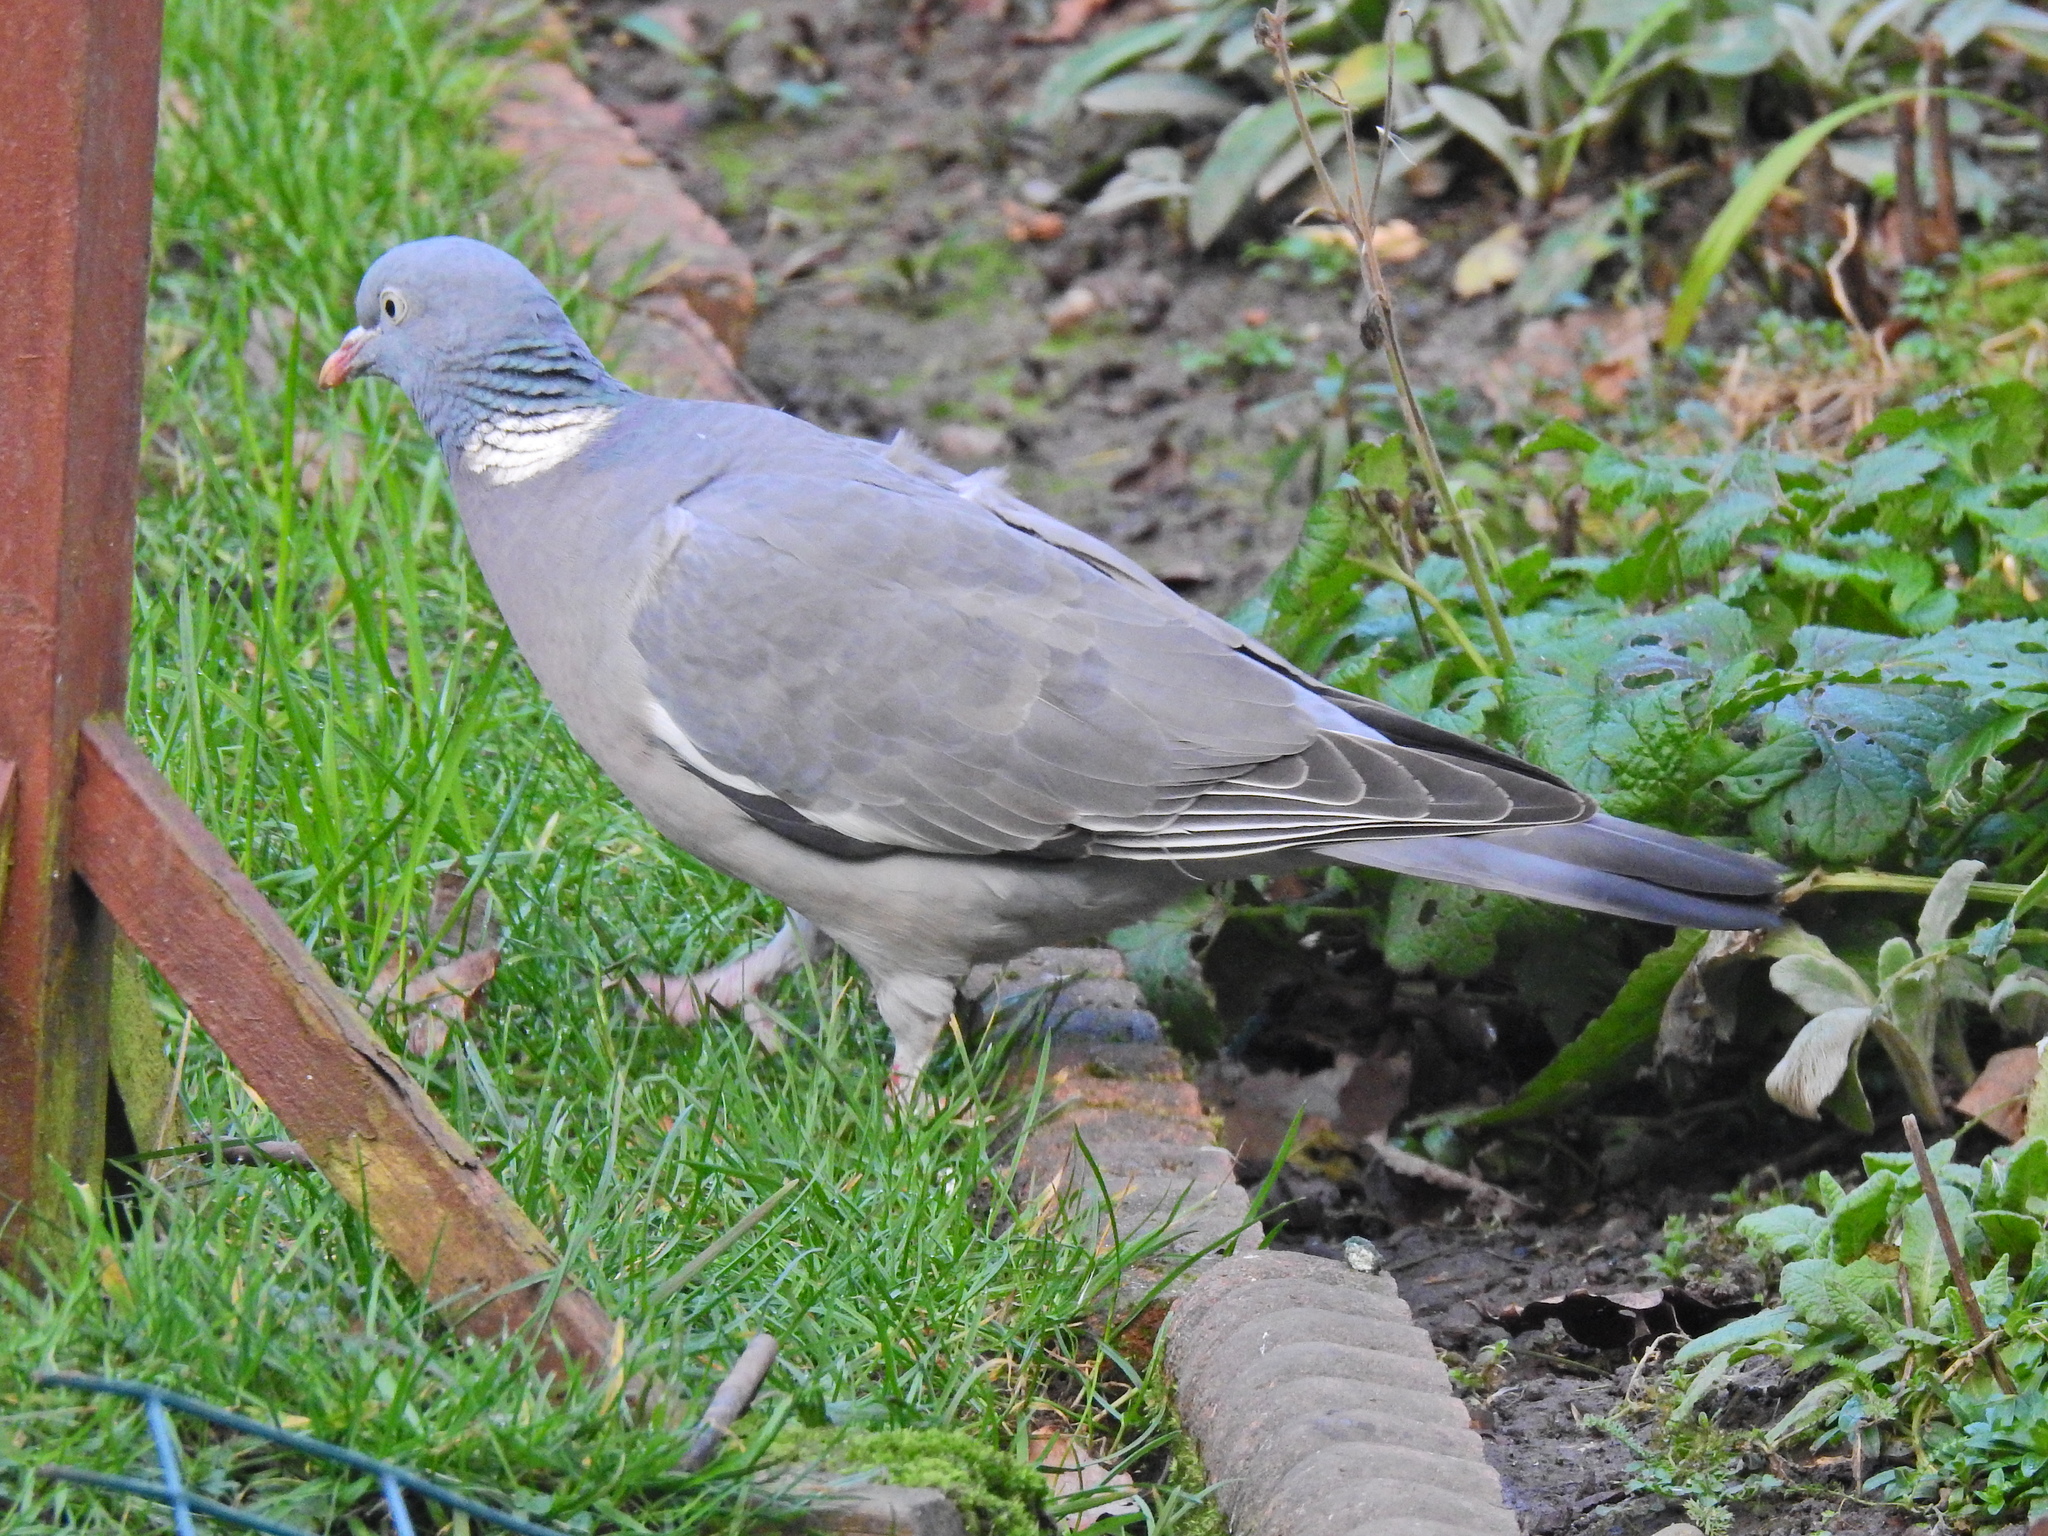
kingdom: Animalia
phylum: Chordata
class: Aves
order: Columbiformes
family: Columbidae
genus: Columba
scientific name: Columba palumbus
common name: Common wood pigeon
